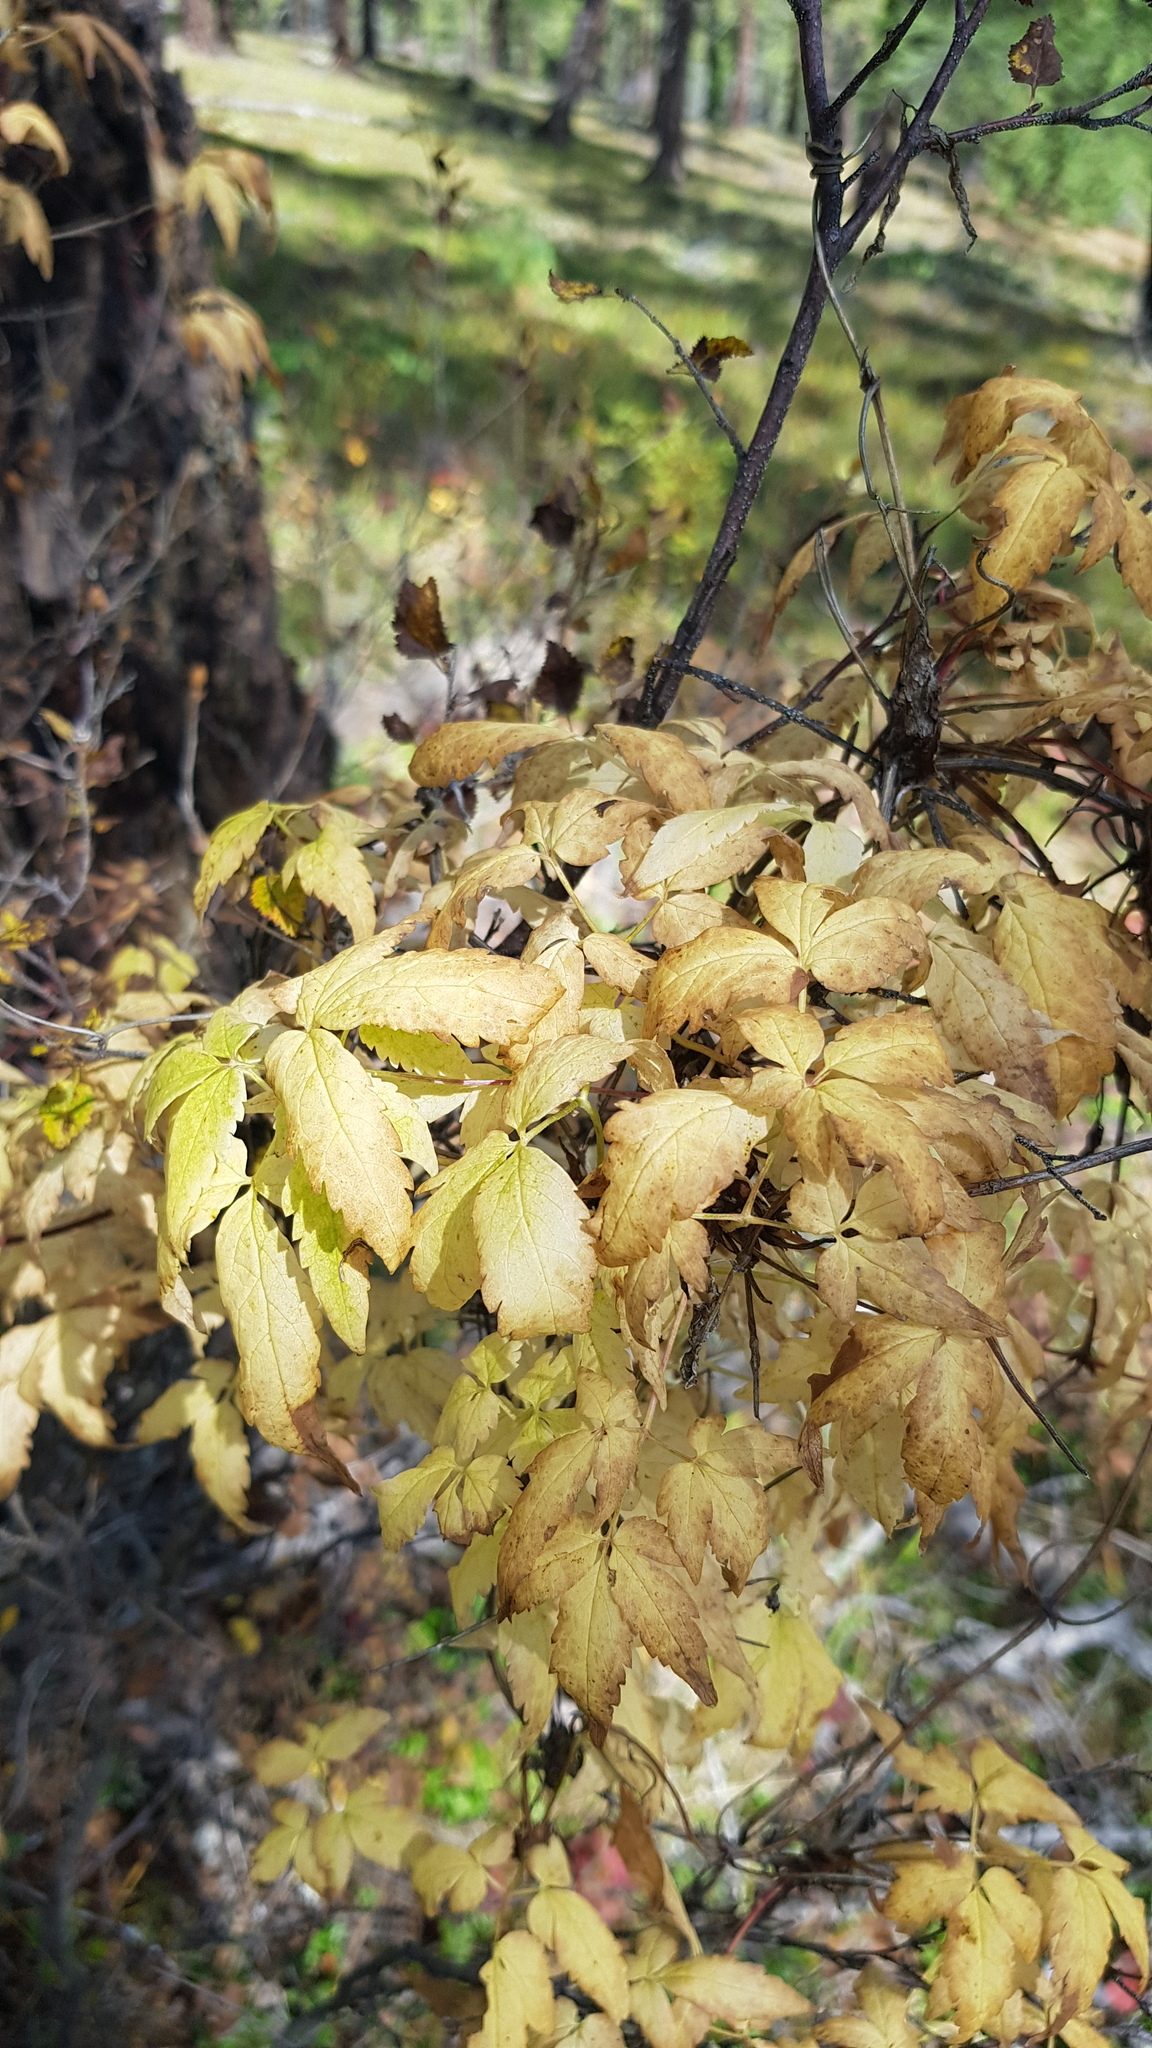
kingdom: Plantae
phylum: Tracheophyta
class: Magnoliopsida
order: Ranunculales
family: Ranunculaceae
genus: Clematis
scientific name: Clematis alpina
